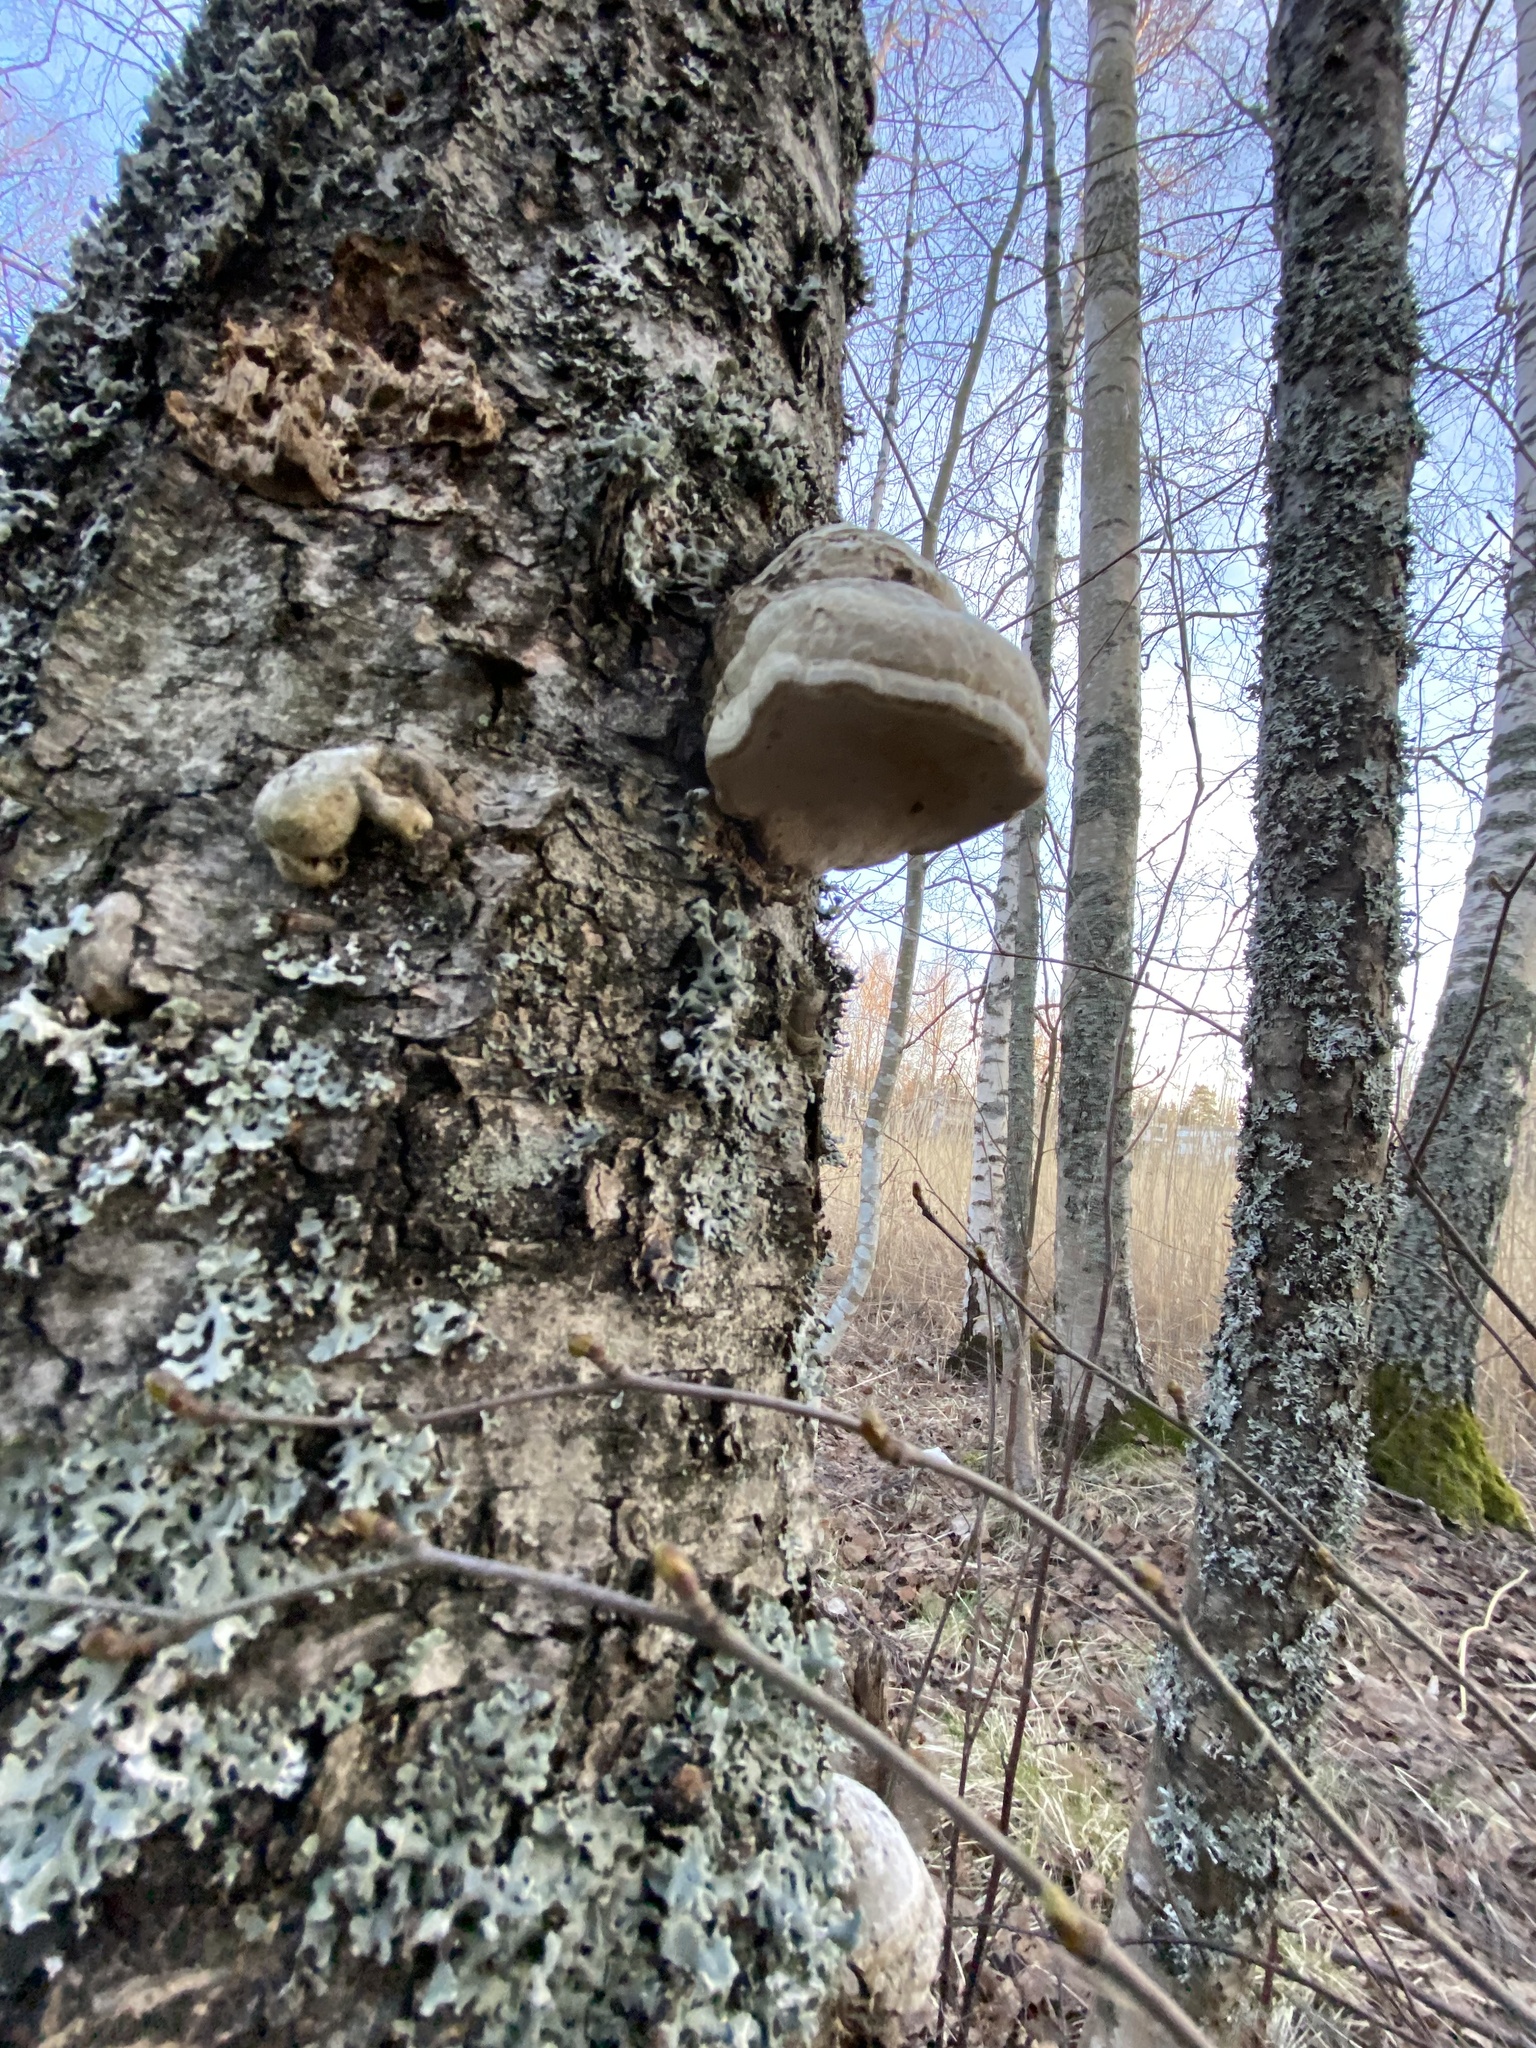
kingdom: Fungi
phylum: Basidiomycota
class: Agaricomycetes
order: Polyporales
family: Polyporaceae
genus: Fomes
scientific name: Fomes fomentarius
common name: Hoof fungus
